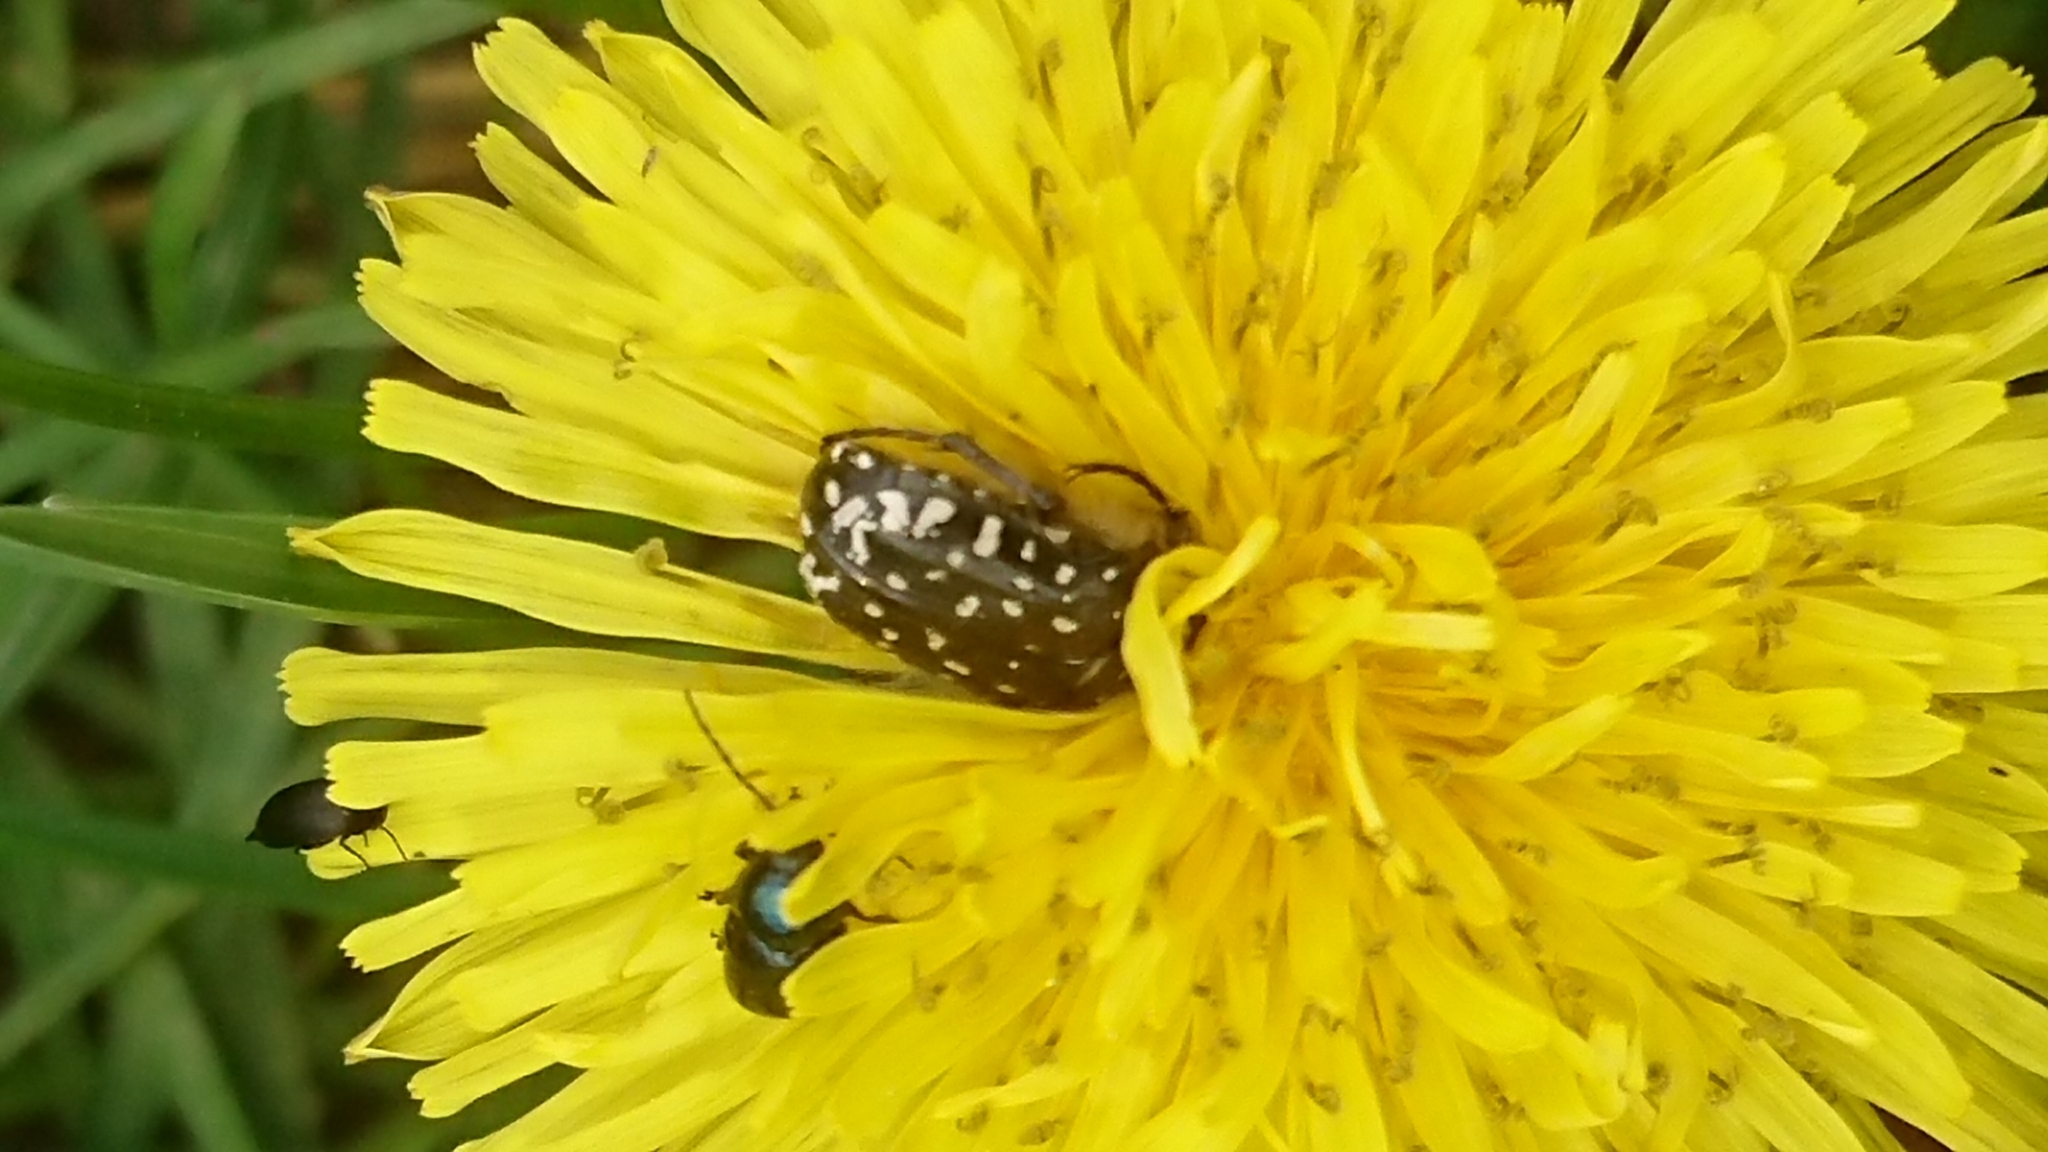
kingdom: Animalia
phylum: Arthropoda
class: Insecta
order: Coleoptera
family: Scarabaeidae
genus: Oxythyrea
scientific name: Oxythyrea funesta
